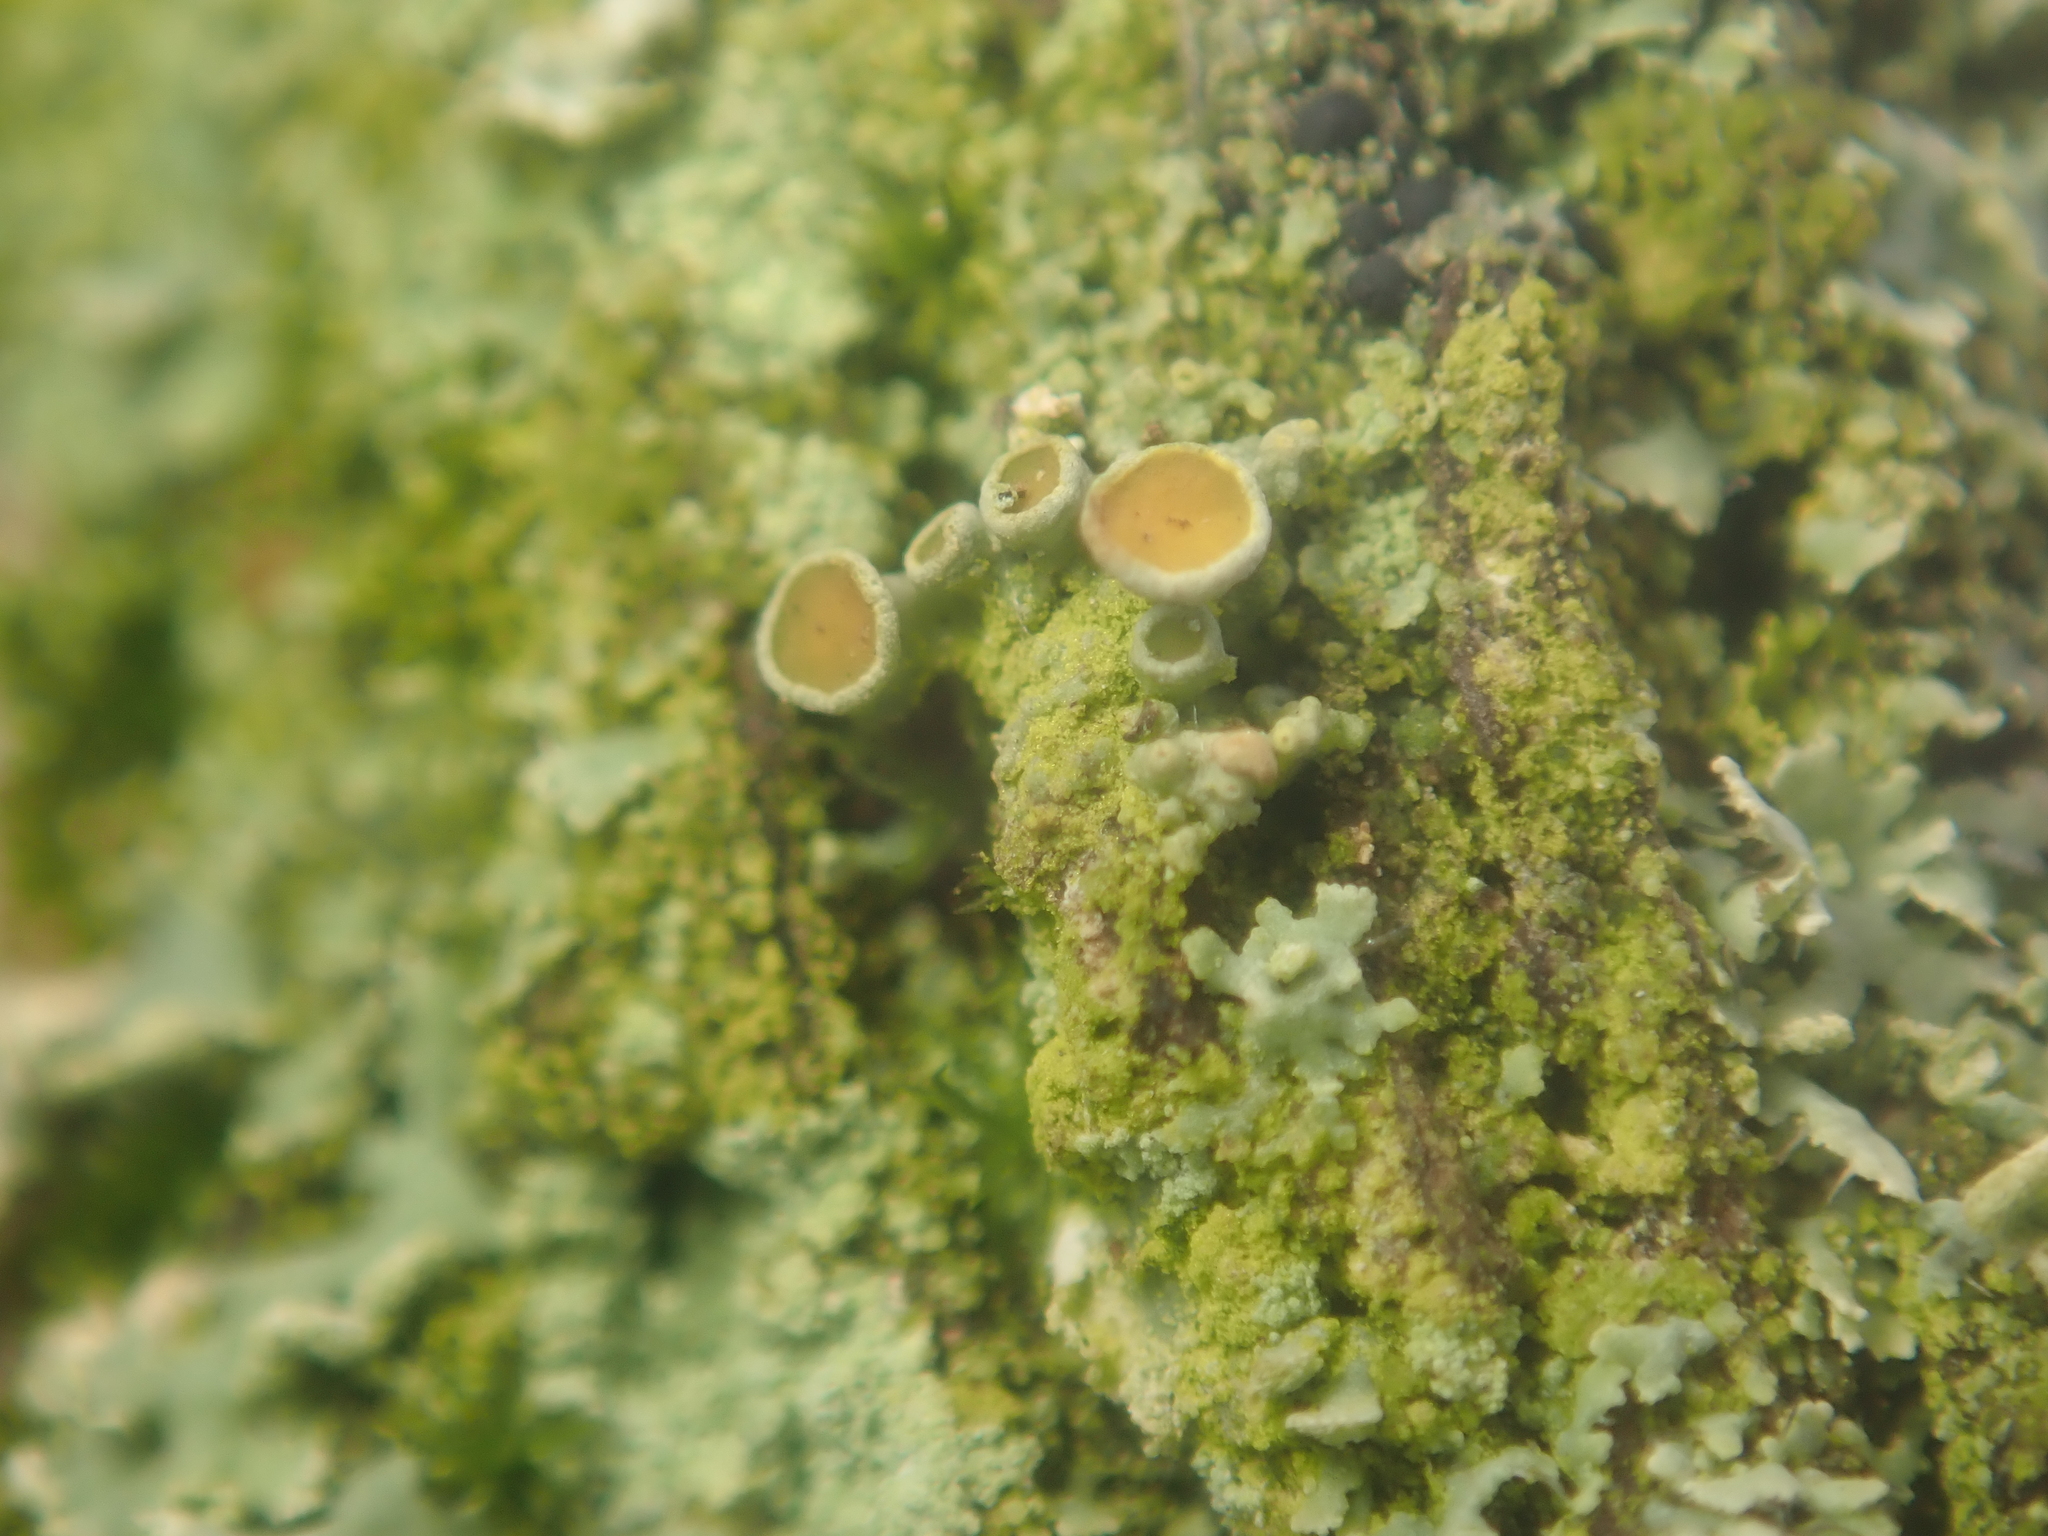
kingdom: Fungi
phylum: Ascomycota
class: Lecanoromycetes
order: Teloschistales
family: Teloschistaceae
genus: Polycauliona
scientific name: Polycauliona polycarpa
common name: Pin-cushion sunburst lichen
